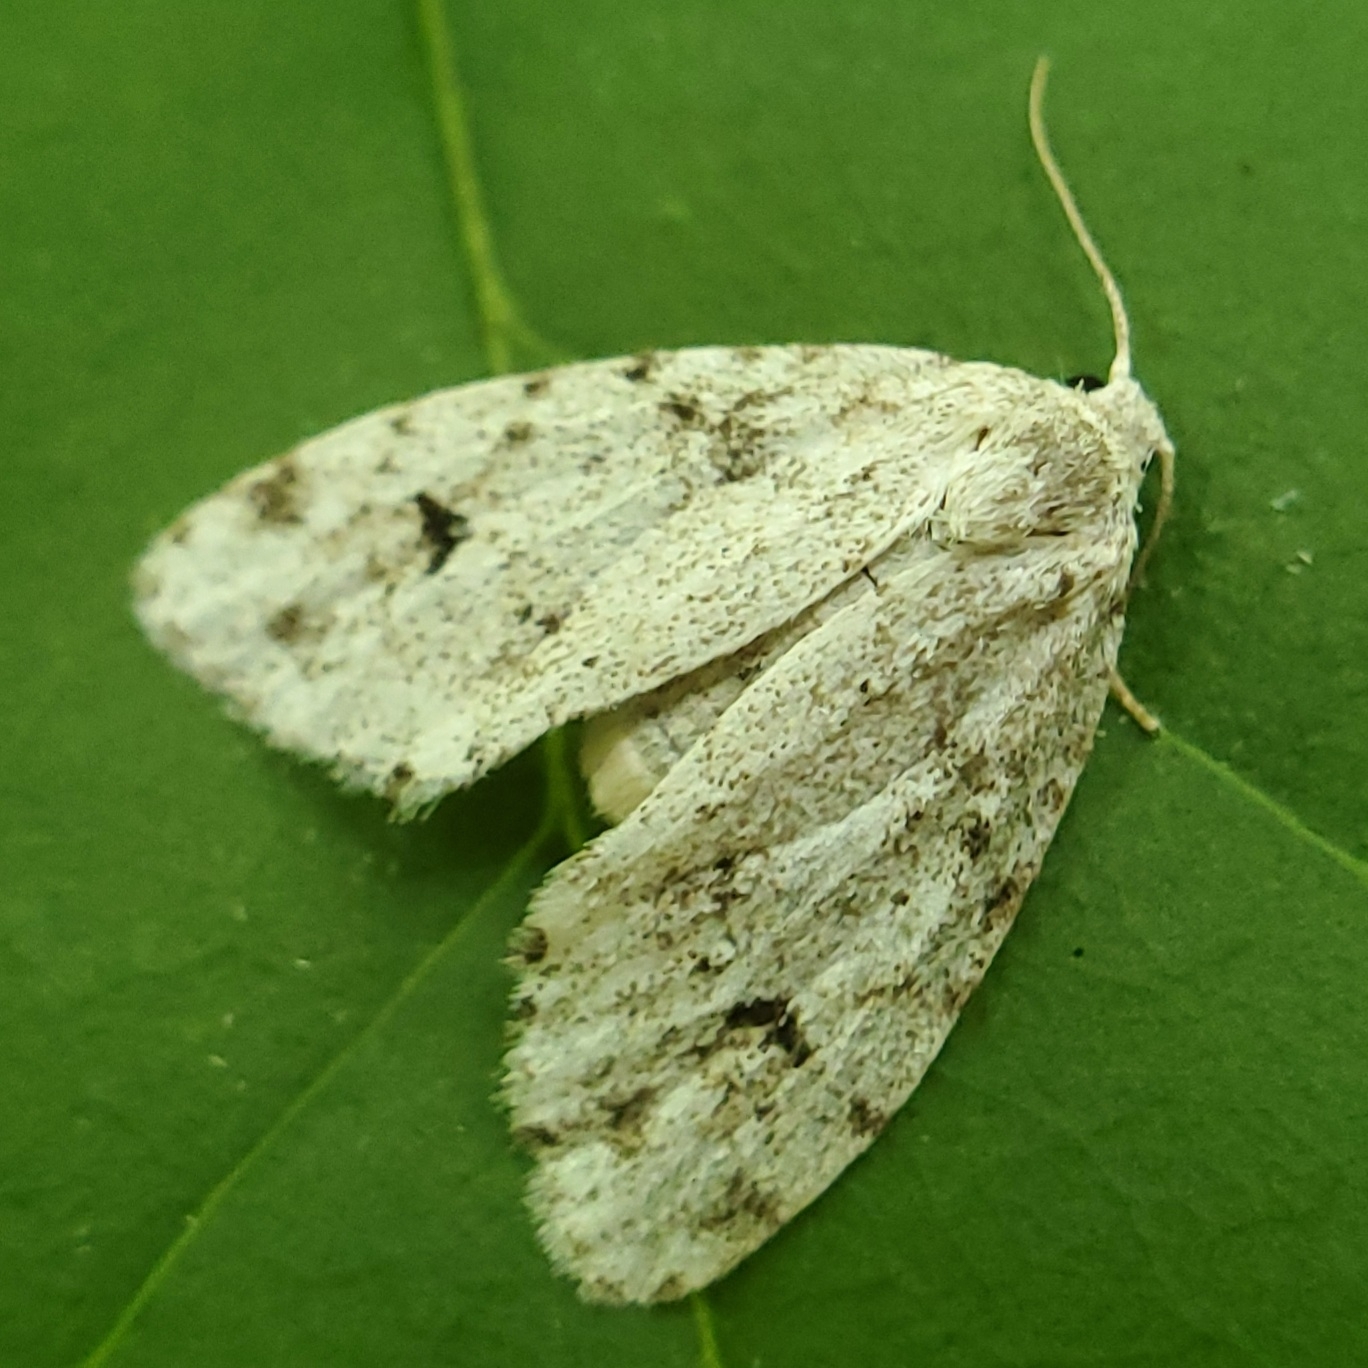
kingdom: Animalia
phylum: Arthropoda
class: Insecta
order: Lepidoptera
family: Erebidae
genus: Clemensia
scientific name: Clemensia albata
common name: Little white lichen moth
